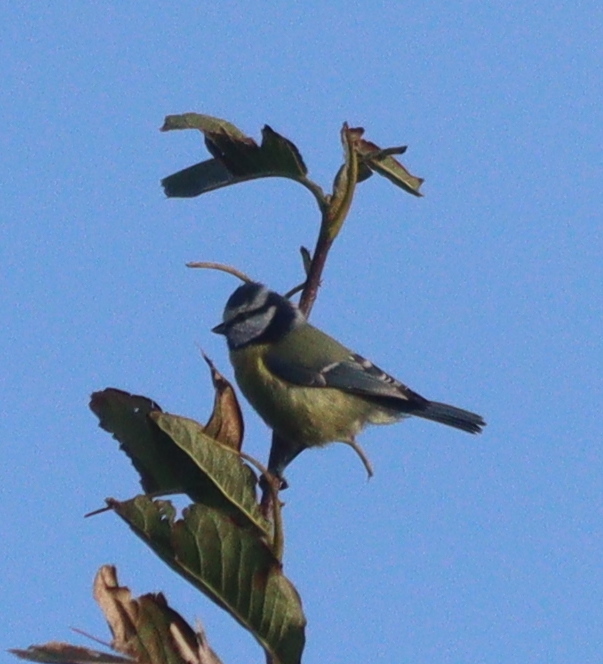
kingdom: Animalia
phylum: Chordata
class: Aves
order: Passeriformes
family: Paridae
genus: Cyanistes
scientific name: Cyanistes caeruleus
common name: Eurasian blue tit
